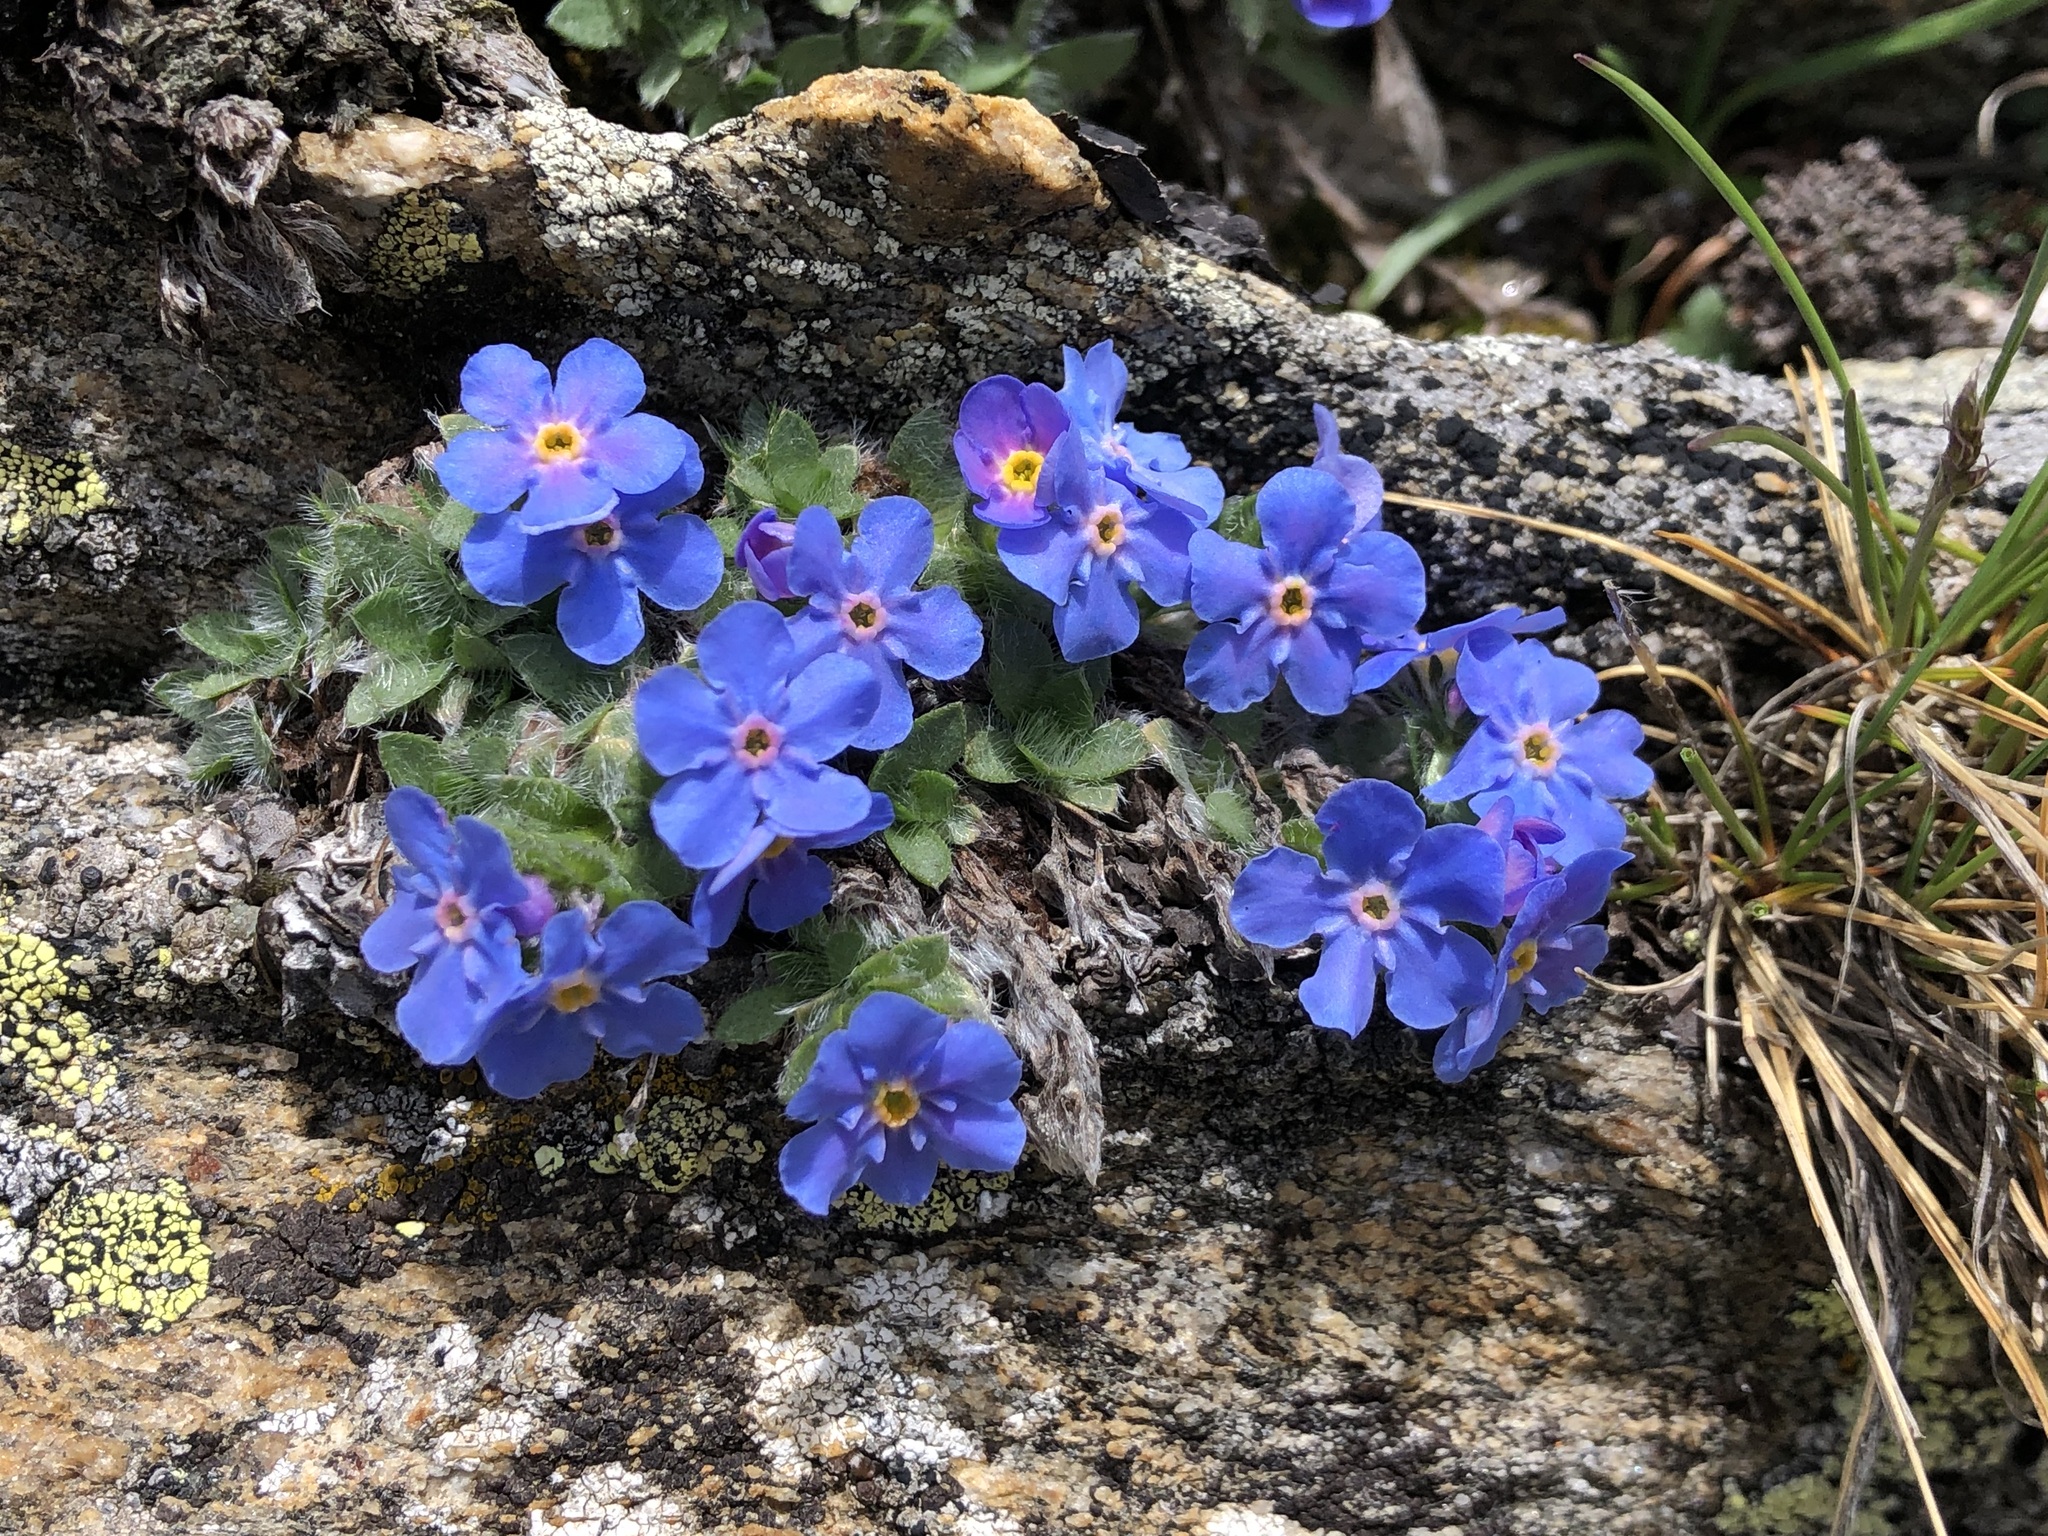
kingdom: Plantae
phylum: Tracheophyta
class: Magnoliopsida
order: Boraginales
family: Boraginaceae
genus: Eritrichium
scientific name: Eritrichium nanum
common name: King-of-the-alps
